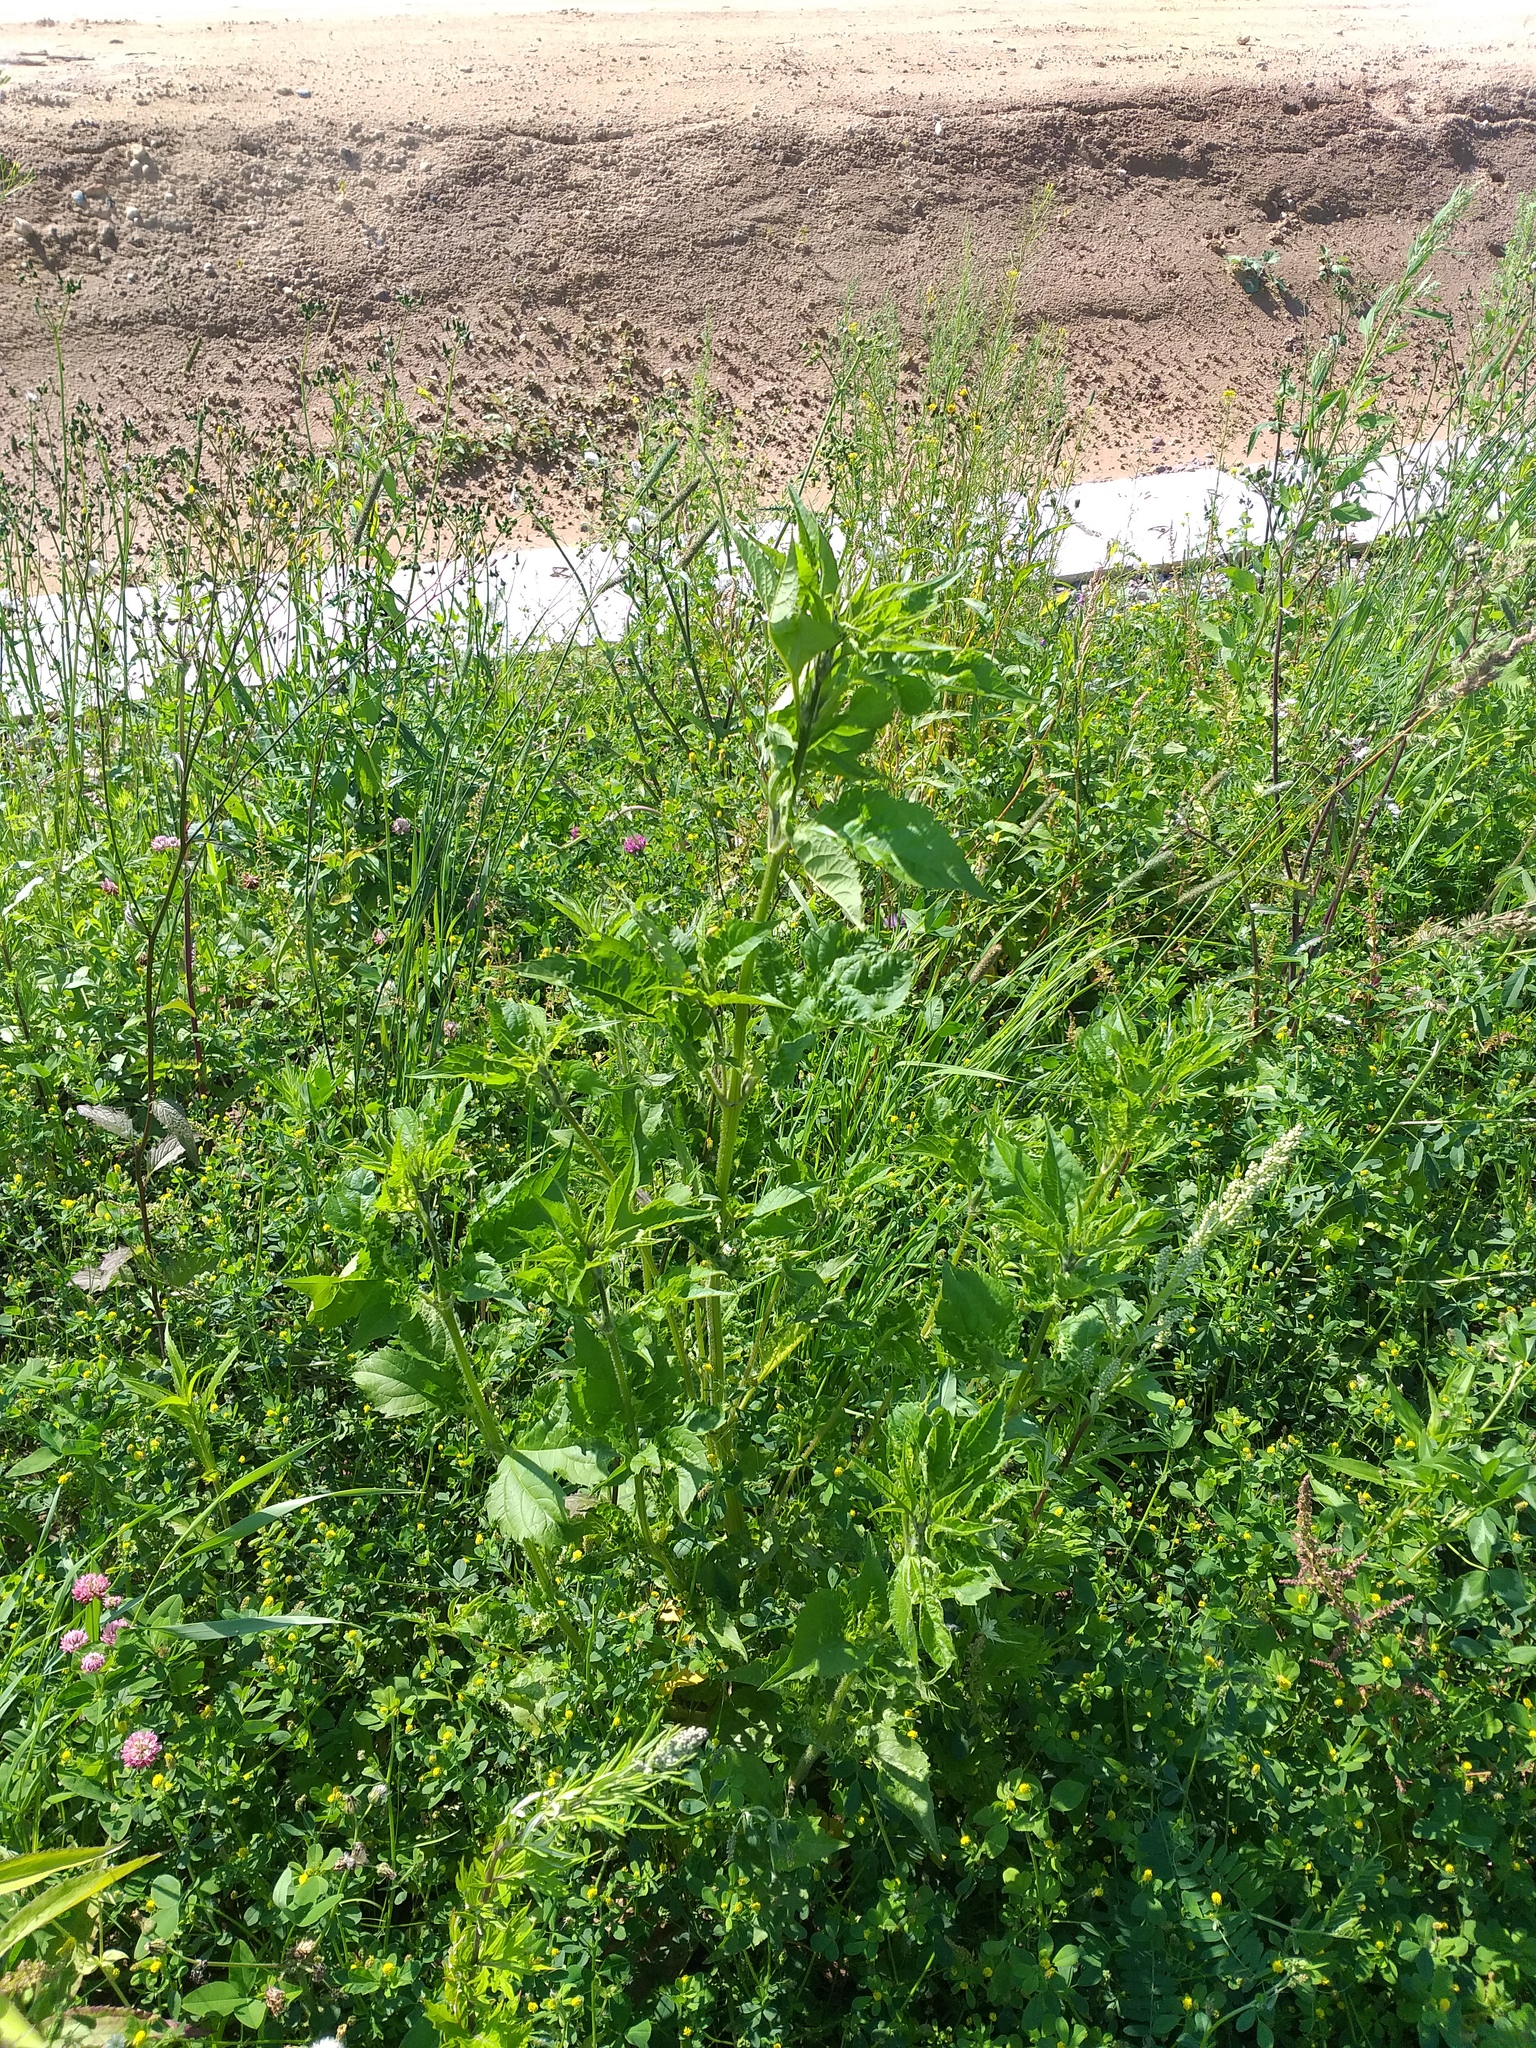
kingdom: Plantae
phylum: Tracheophyta
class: Magnoliopsida
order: Asterales
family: Asteraceae
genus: Ambrosia
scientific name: Ambrosia trifida
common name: Giant ragweed
